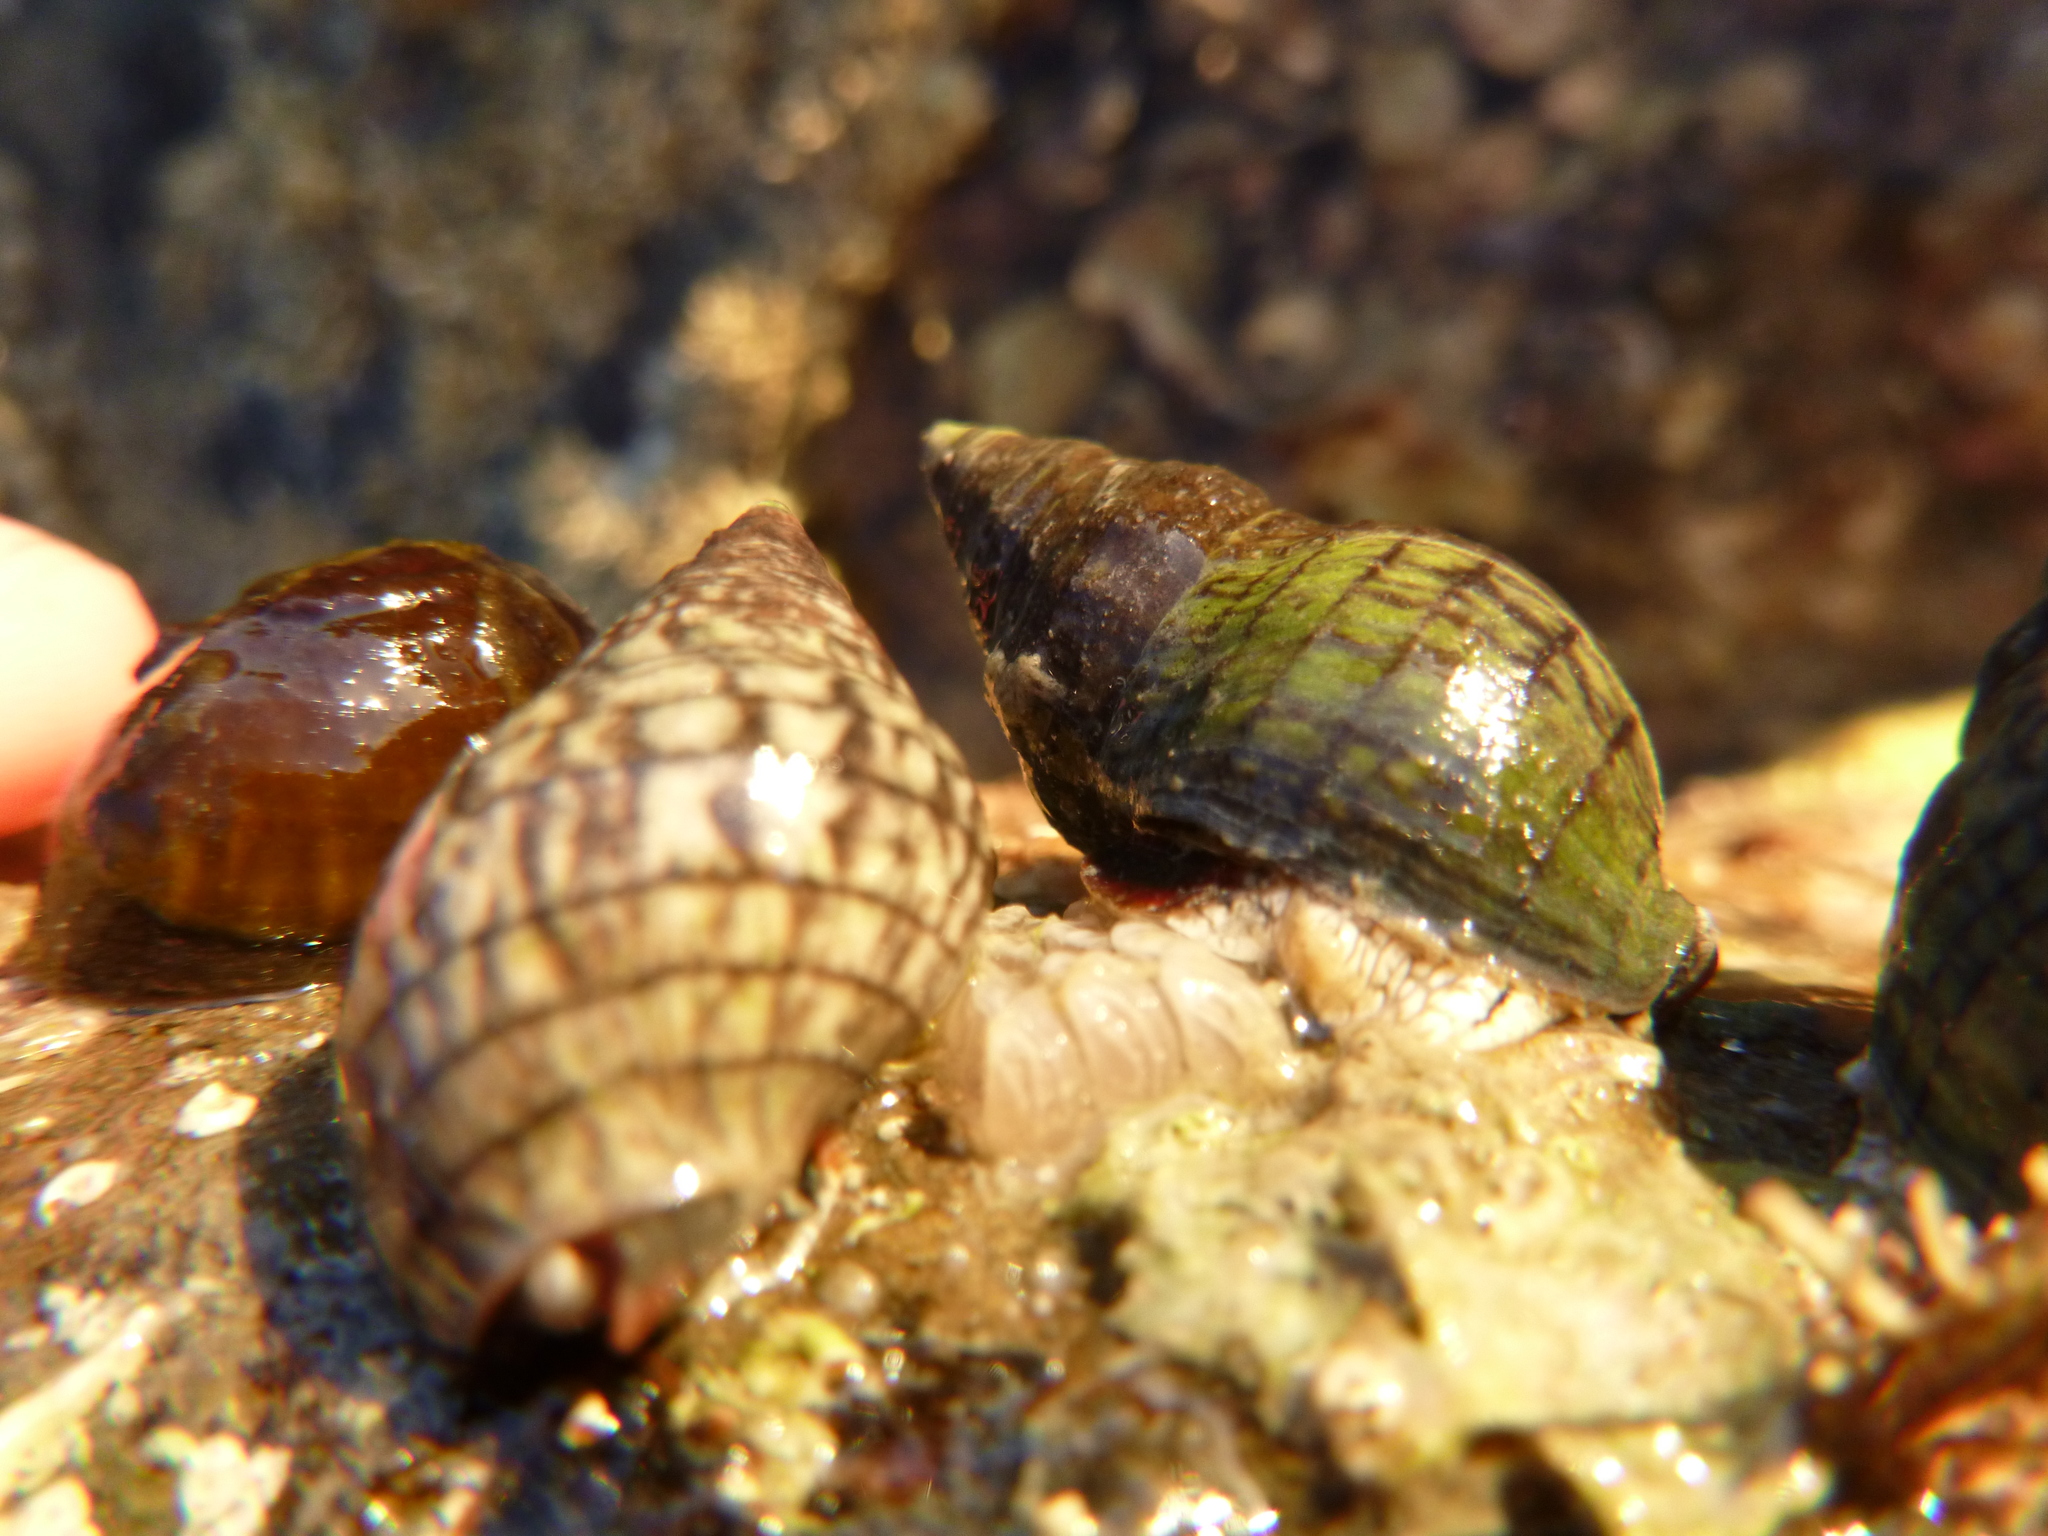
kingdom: Animalia
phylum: Mollusca
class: Gastropoda
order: Neogastropoda
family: Cominellidae
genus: Cominella
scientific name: Cominella virgata
